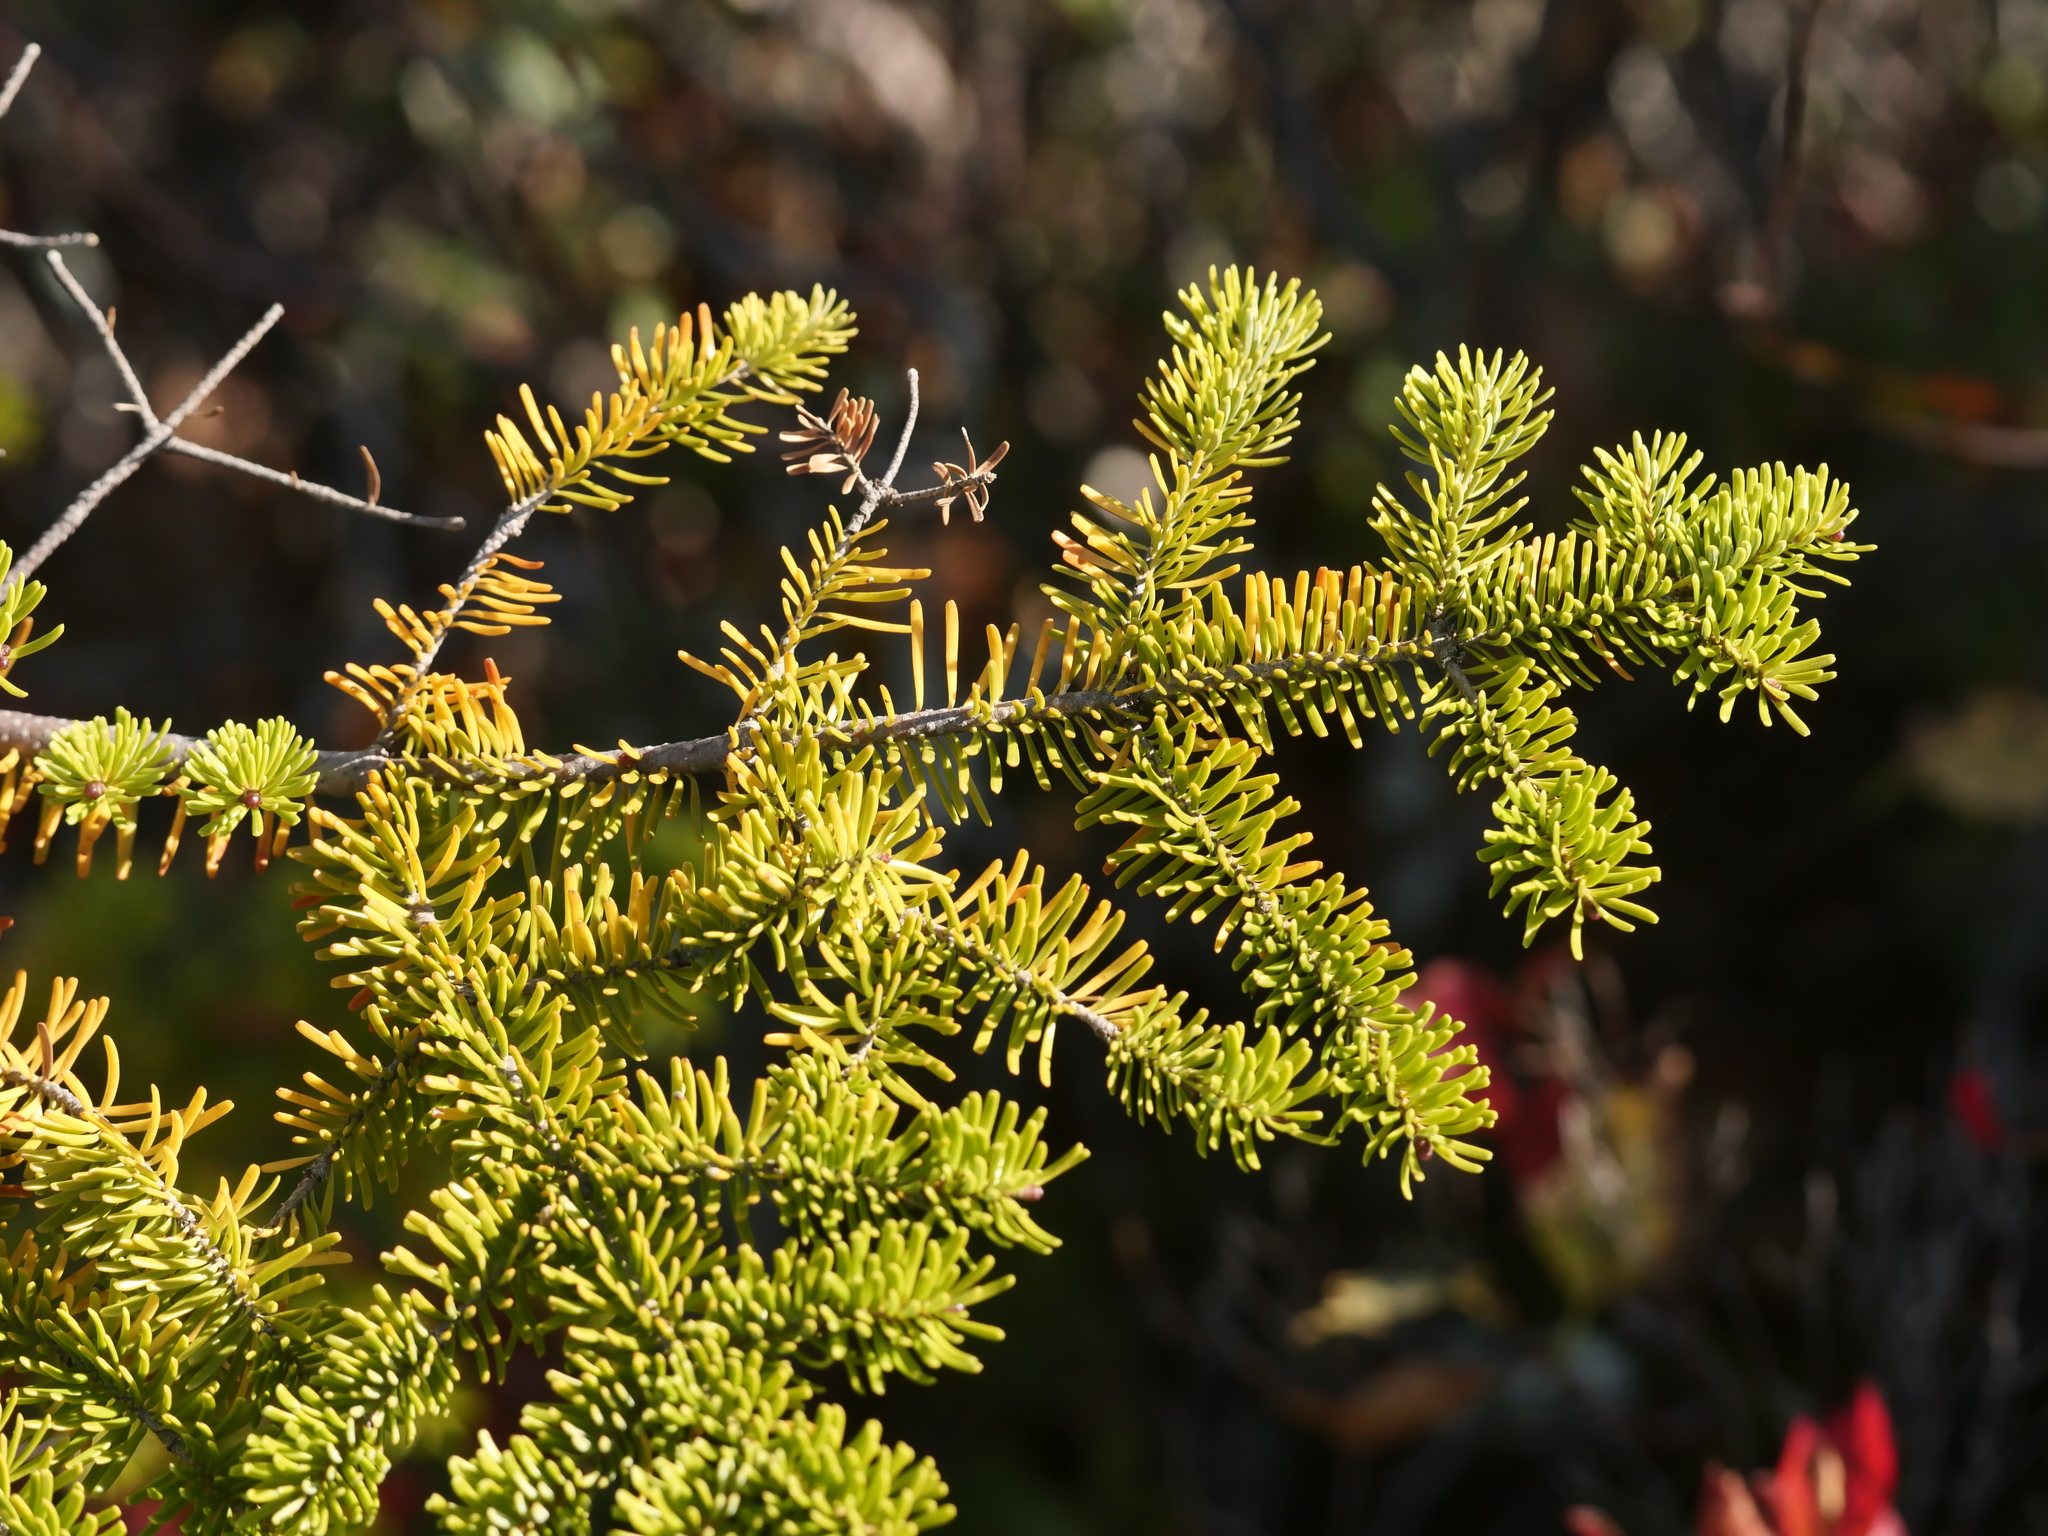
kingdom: Plantae
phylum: Tracheophyta
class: Pinopsida
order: Pinales
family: Pinaceae
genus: Abies
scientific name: Abies balsamea
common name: Balsam fir
